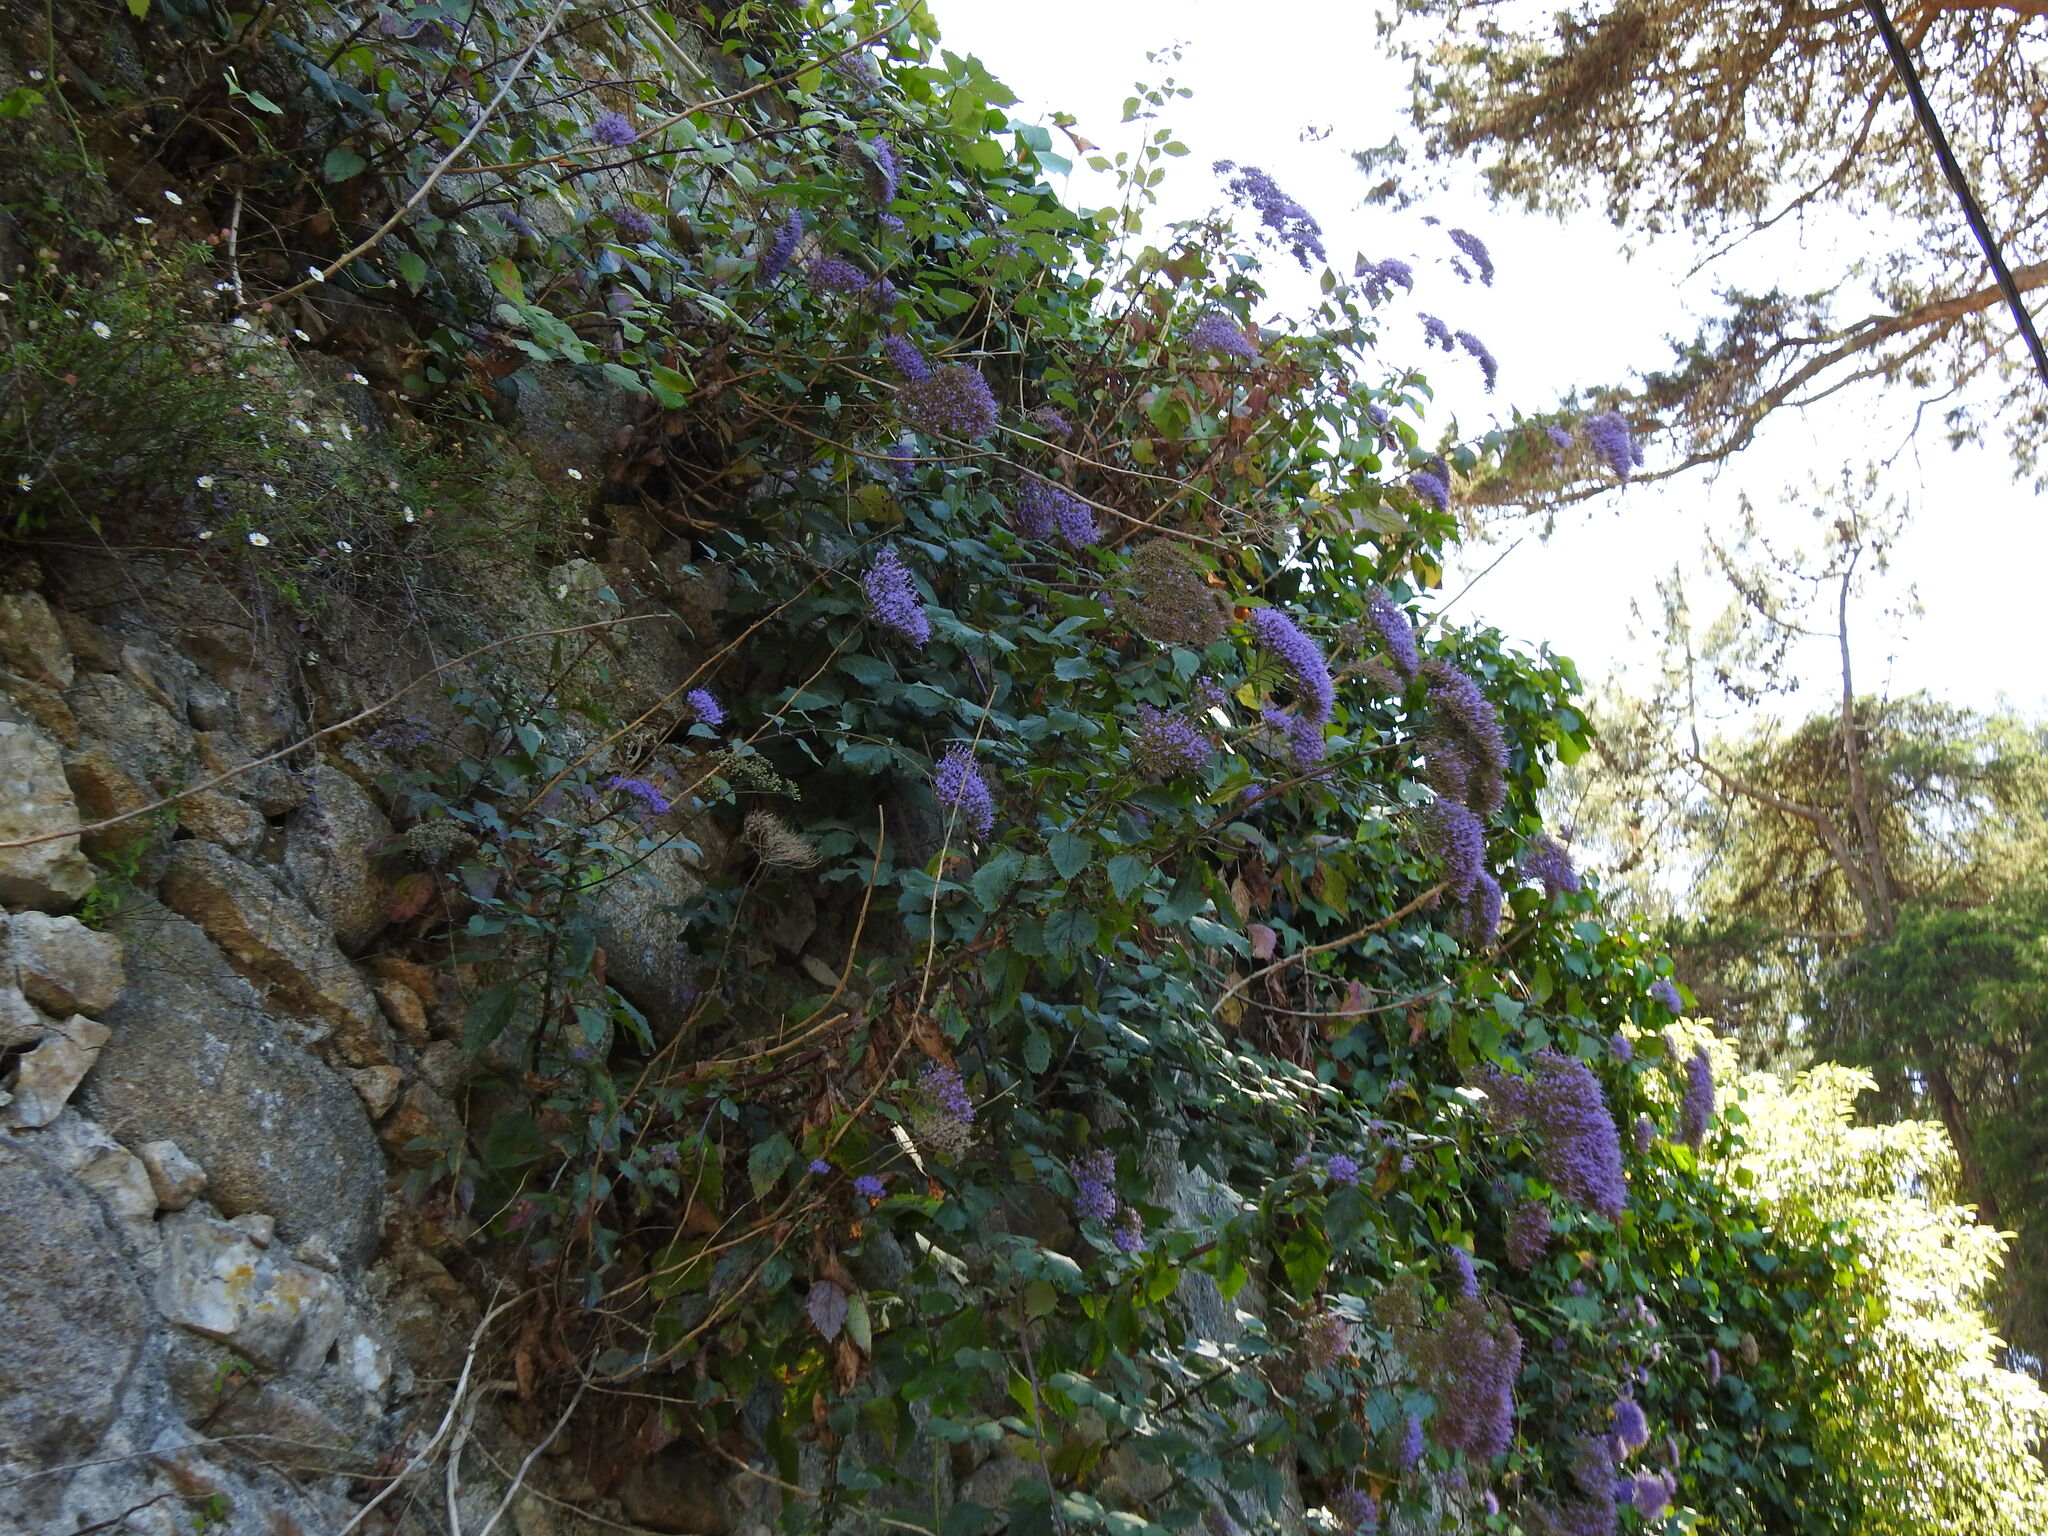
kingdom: Plantae
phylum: Tracheophyta
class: Magnoliopsida
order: Asterales
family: Campanulaceae
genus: Trachelium
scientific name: Trachelium caeruleum
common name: Throatwort
